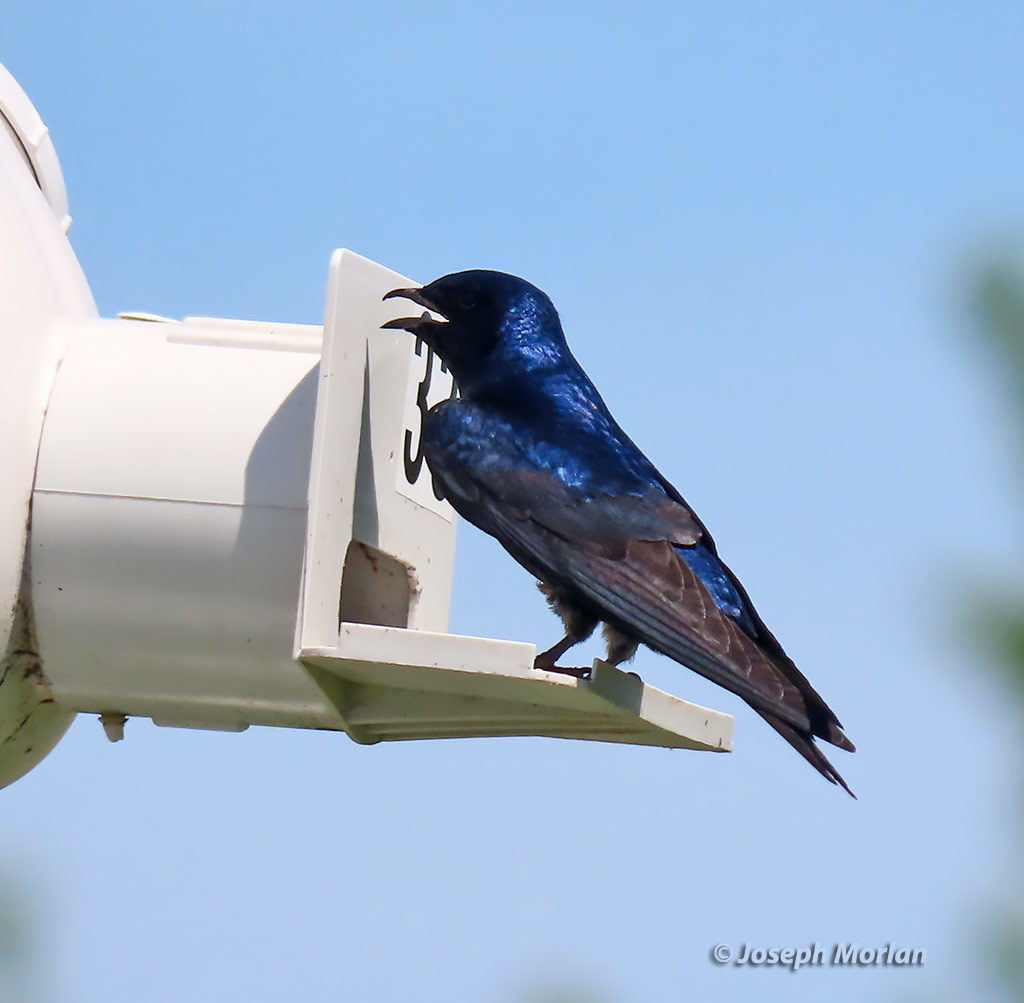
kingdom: Animalia
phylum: Chordata
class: Aves
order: Passeriformes
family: Hirundinidae
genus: Progne
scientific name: Progne subis
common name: Purple martin
